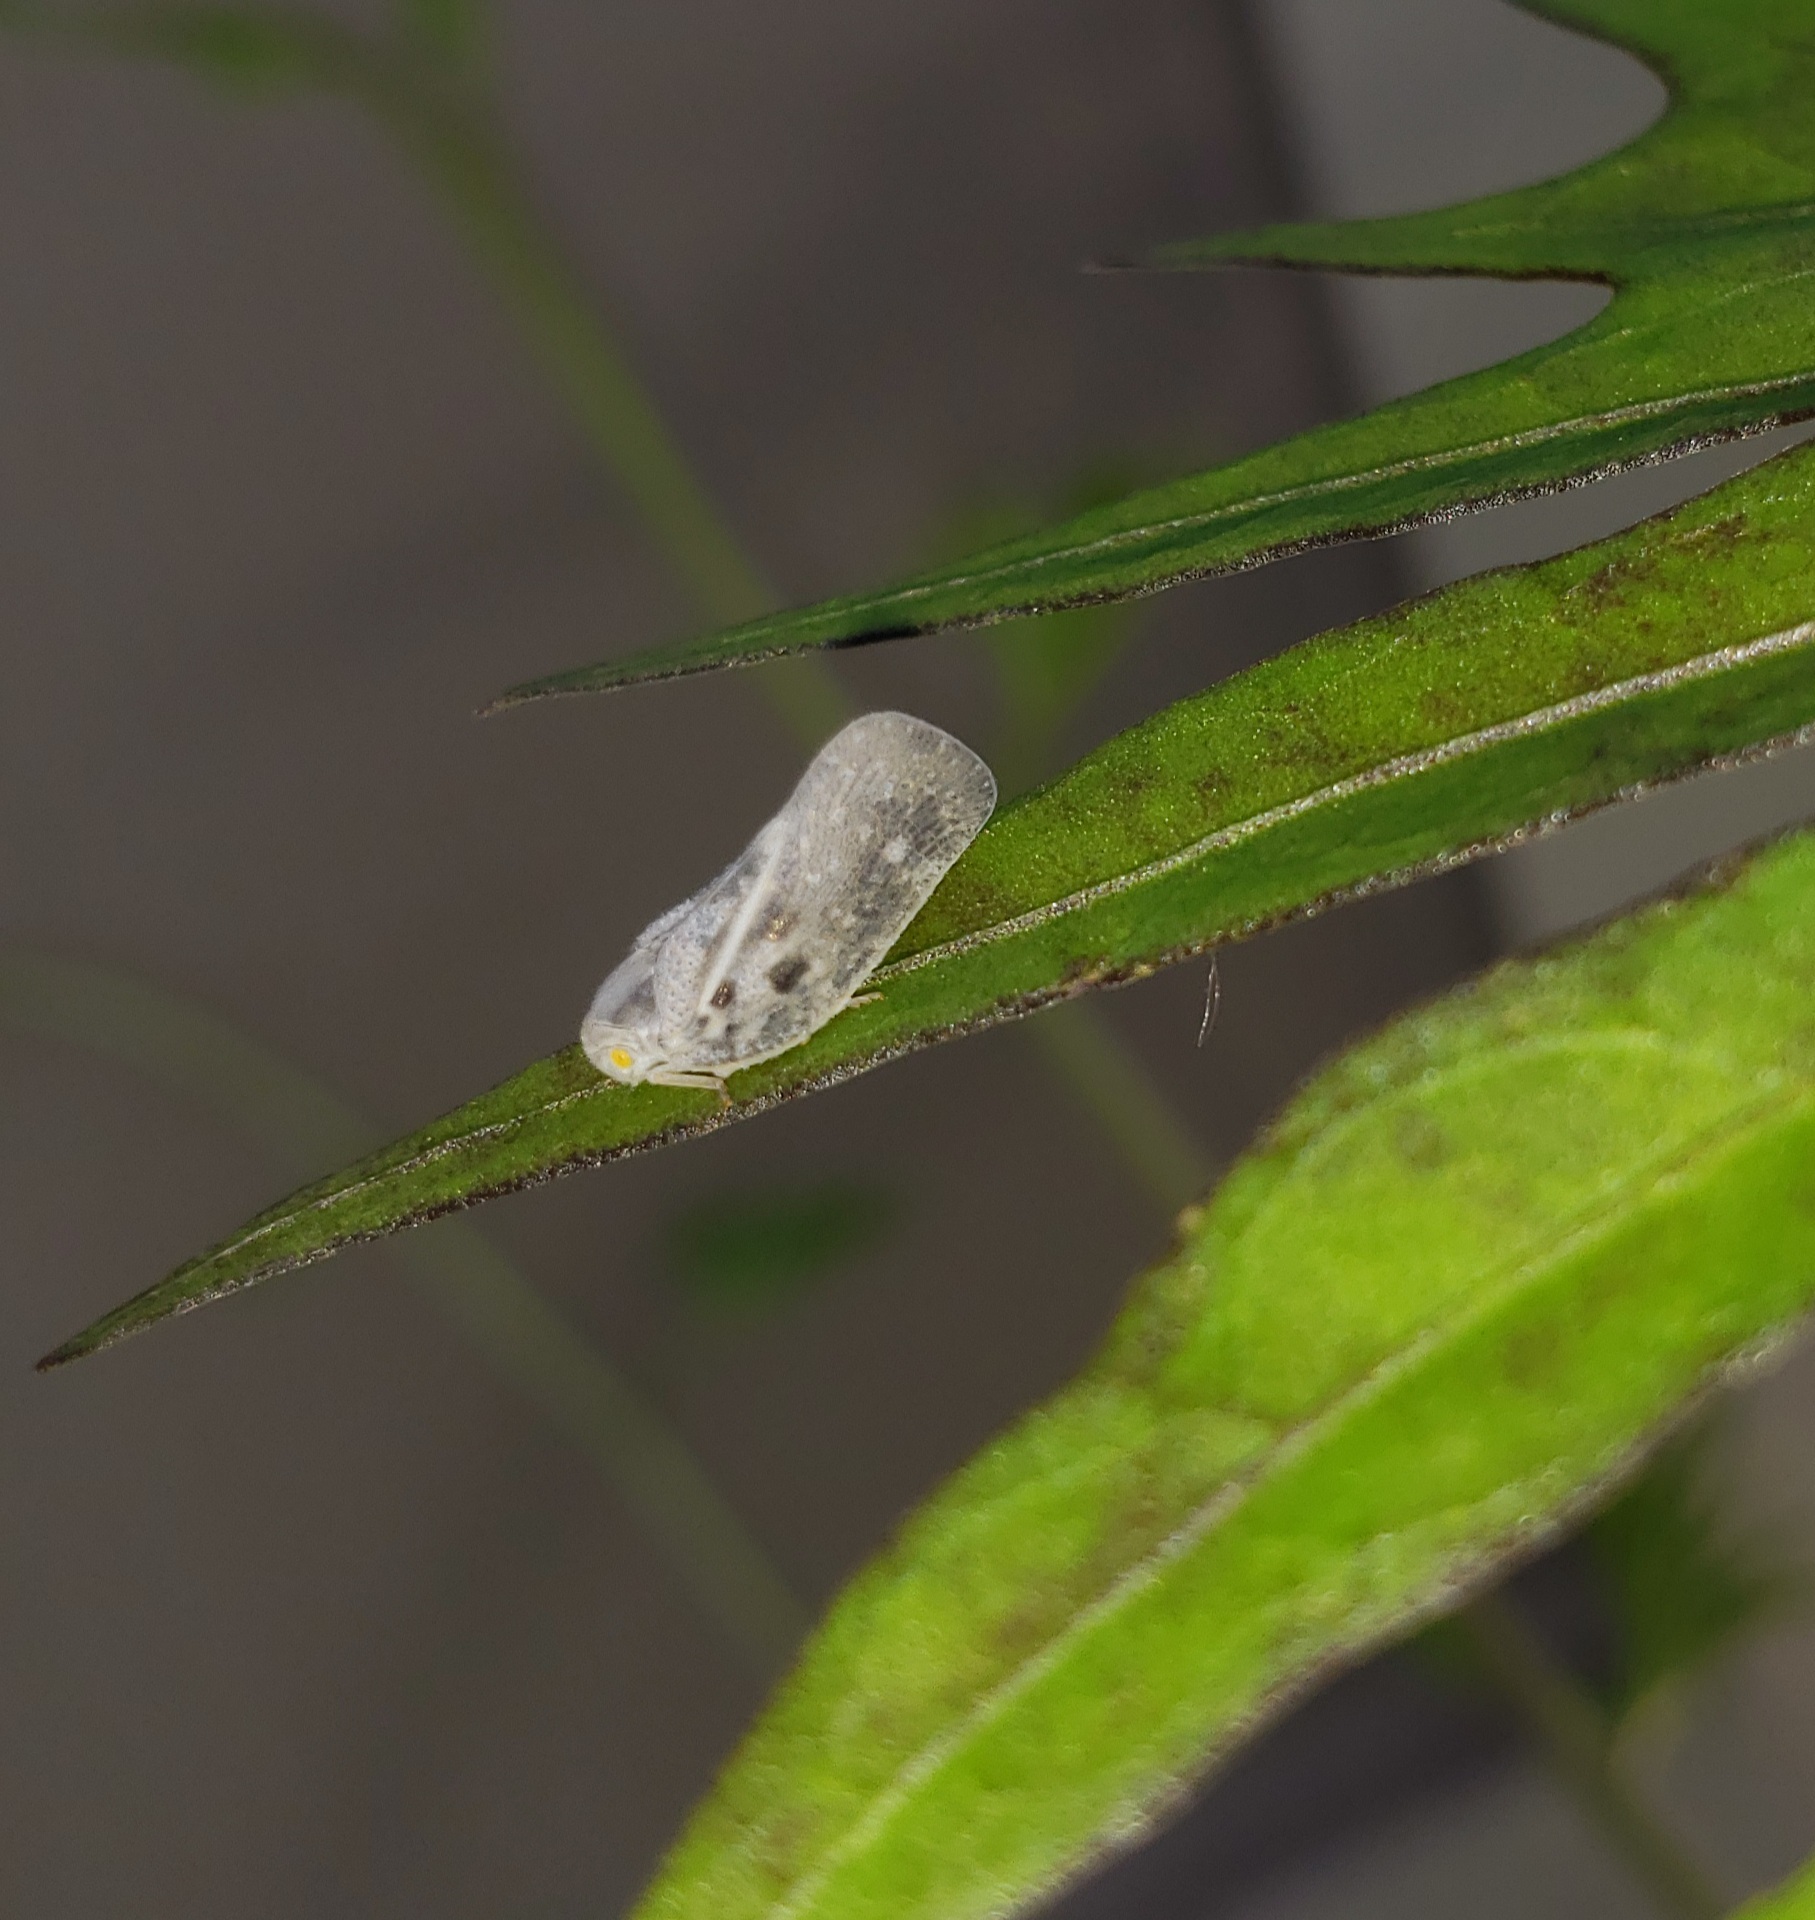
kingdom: Animalia
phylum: Arthropoda
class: Insecta
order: Hemiptera
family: Flatidae
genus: Metcalfa
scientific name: Metcalfa pruinosa
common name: Citrus flatid planthopper
